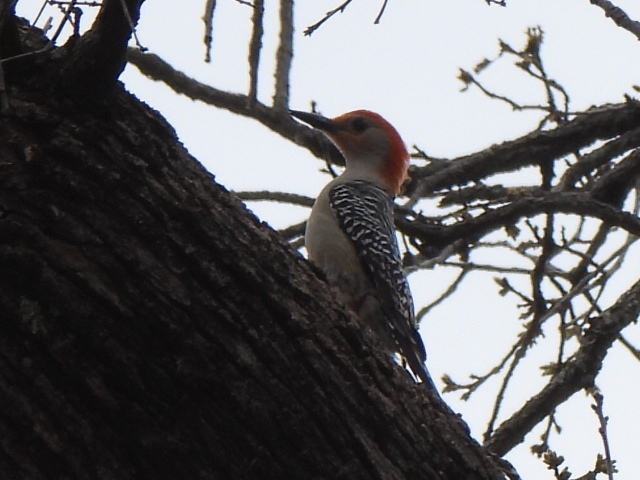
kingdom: Animalia
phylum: Chordata
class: Aves
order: Piciformes
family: Picidae
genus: Melanerpes
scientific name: Melanerpes carolinus
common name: Red-bellied woodpecker
